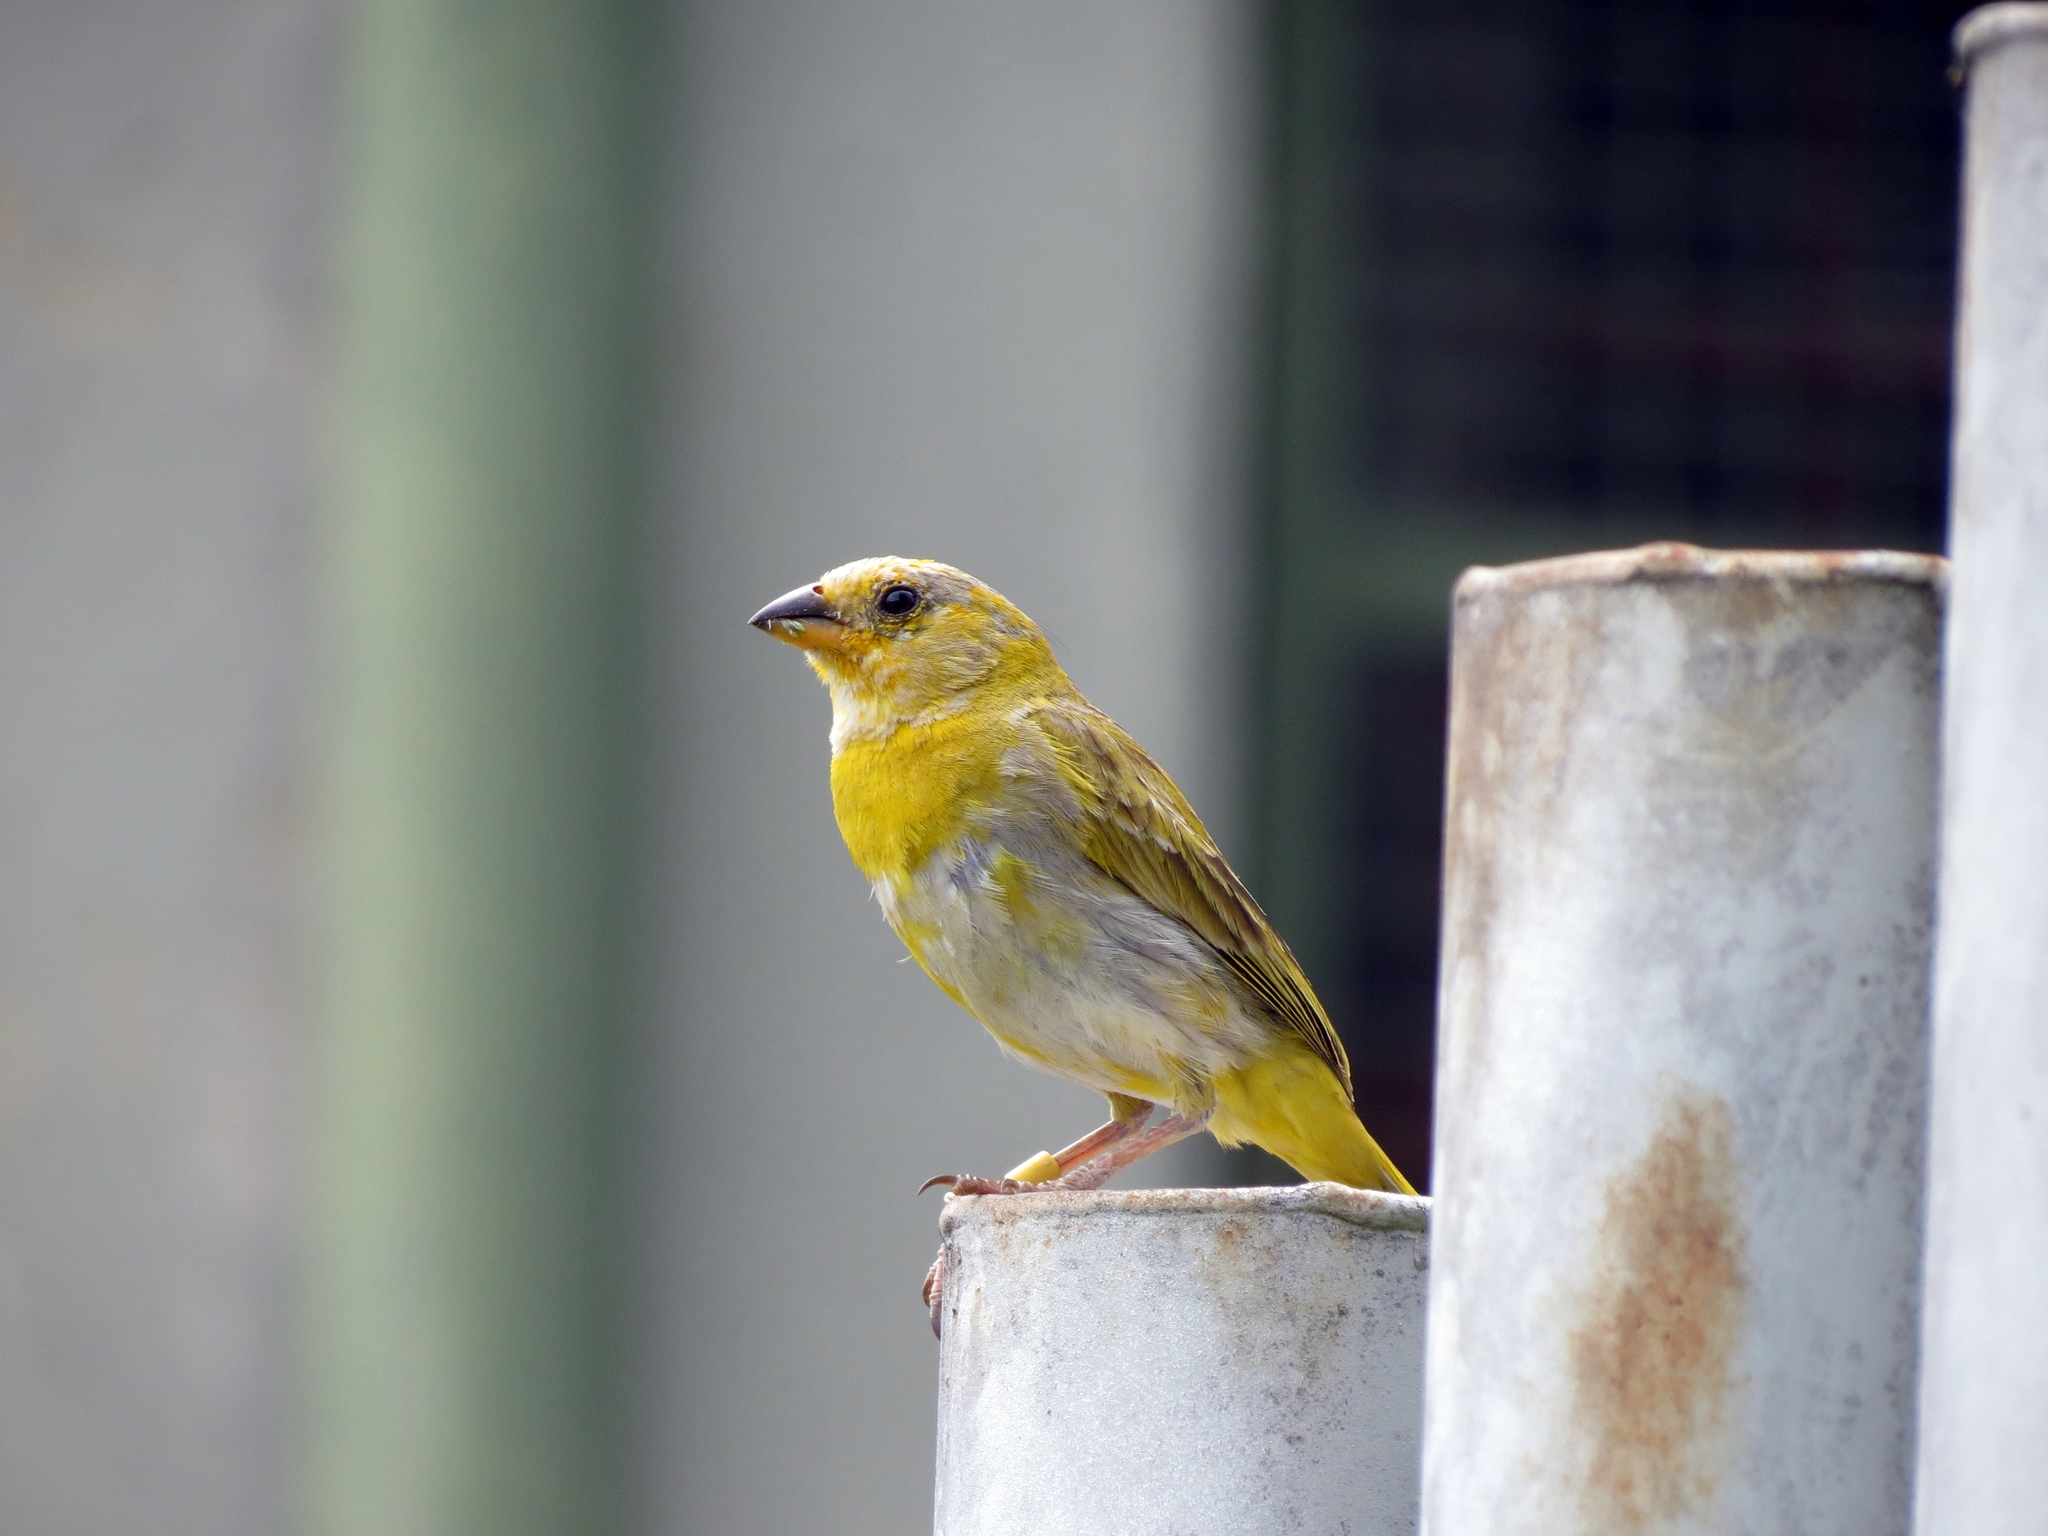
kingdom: Animalia
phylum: Chordata
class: Aves
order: Passeriformes
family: Thraupidae
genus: Sicalis
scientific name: Sicalis flaveola
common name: Saffron finch
